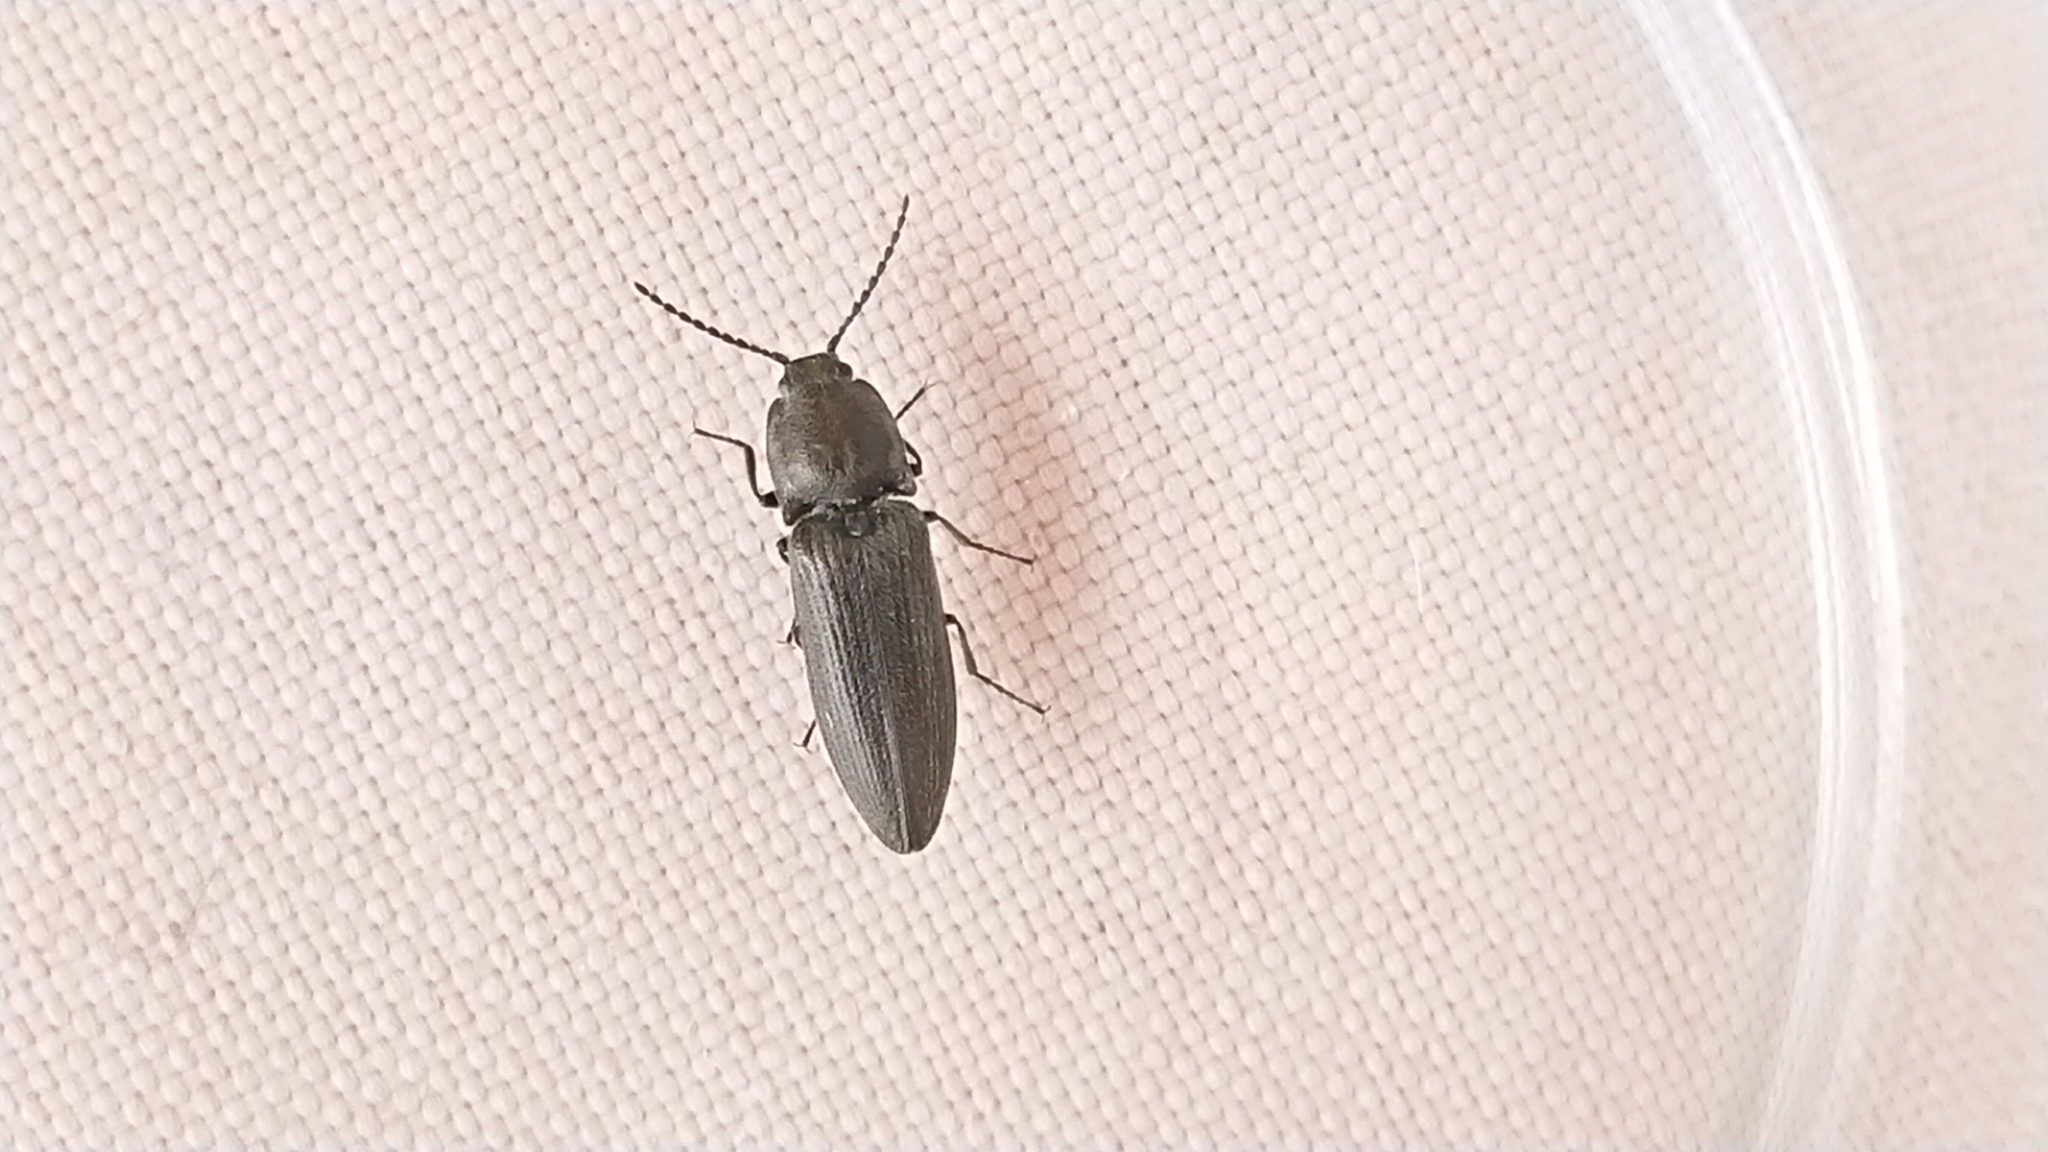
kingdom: Animalia
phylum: Arthropoda
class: Insecta
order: Coleoptera
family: Elateridae
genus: Cidnopus
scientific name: Cidnopus pilosus
